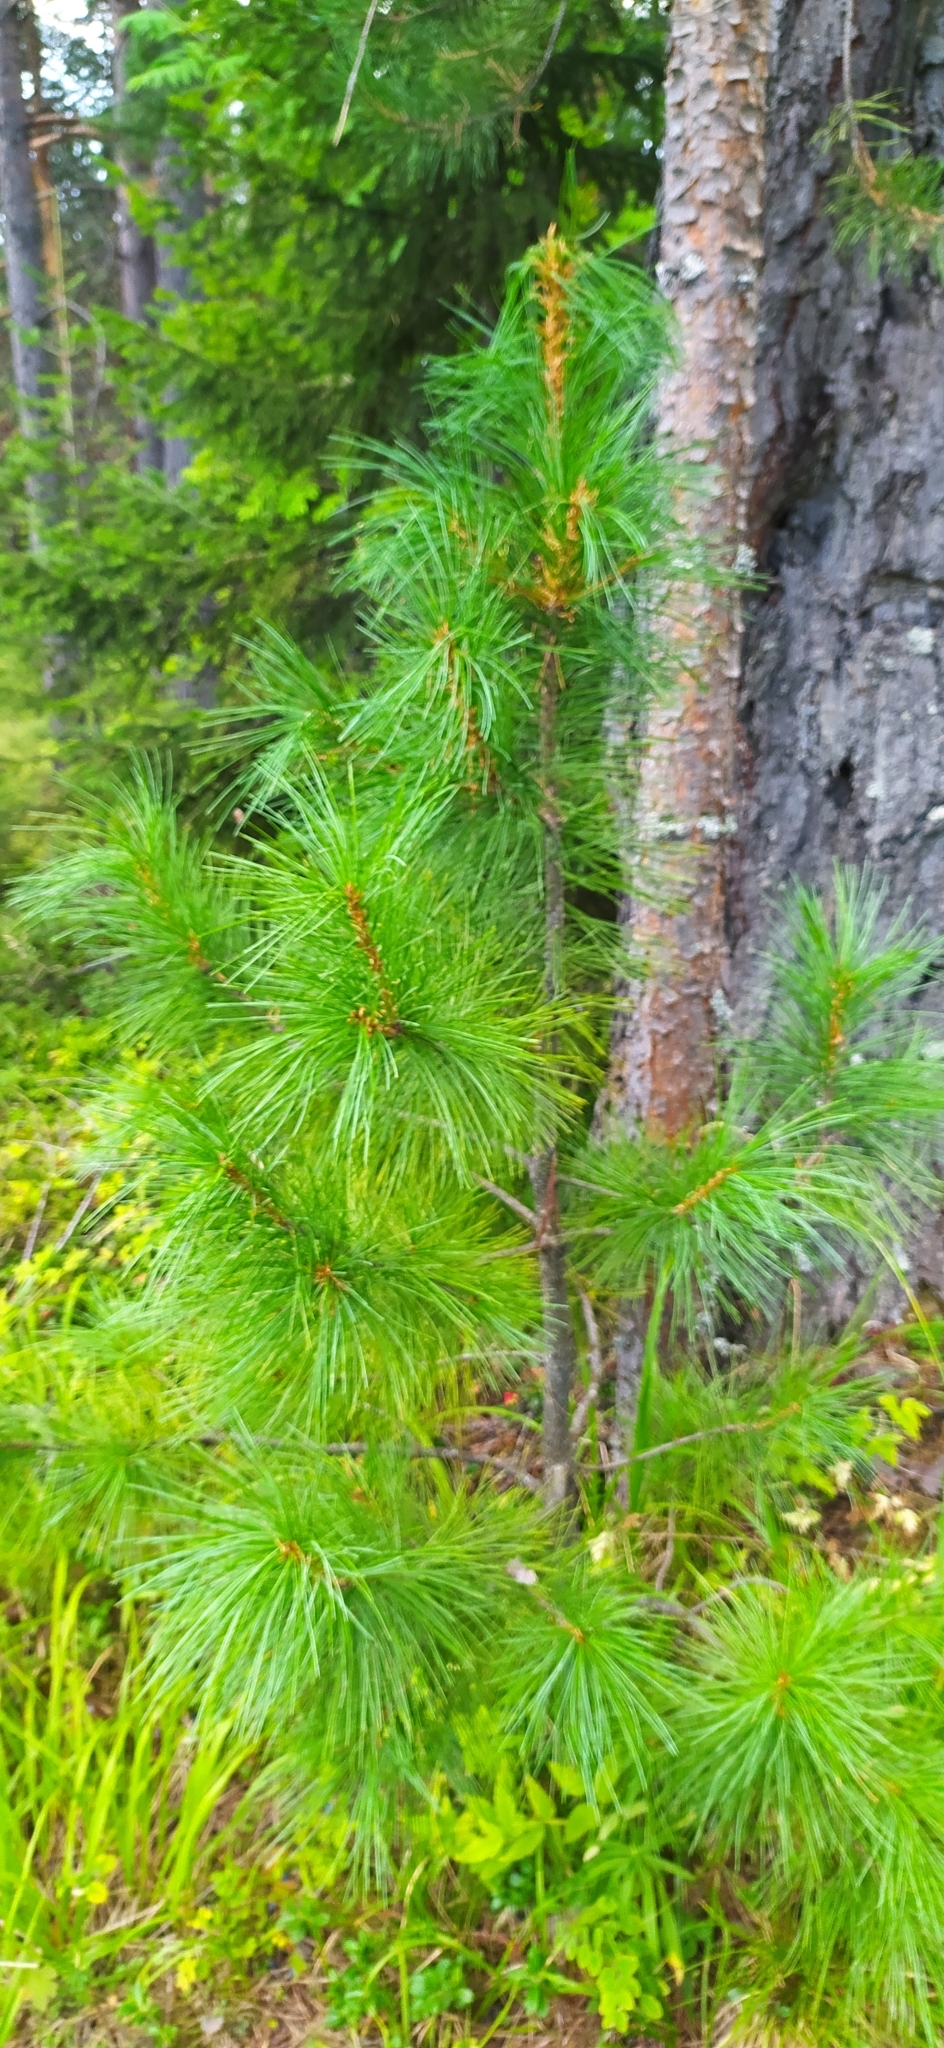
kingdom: Plantae
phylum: Tracheophyta
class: Pinopsida
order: Pinales
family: Pinaceae
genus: Pinus
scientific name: Pinus sibirica
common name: Siberian pine
